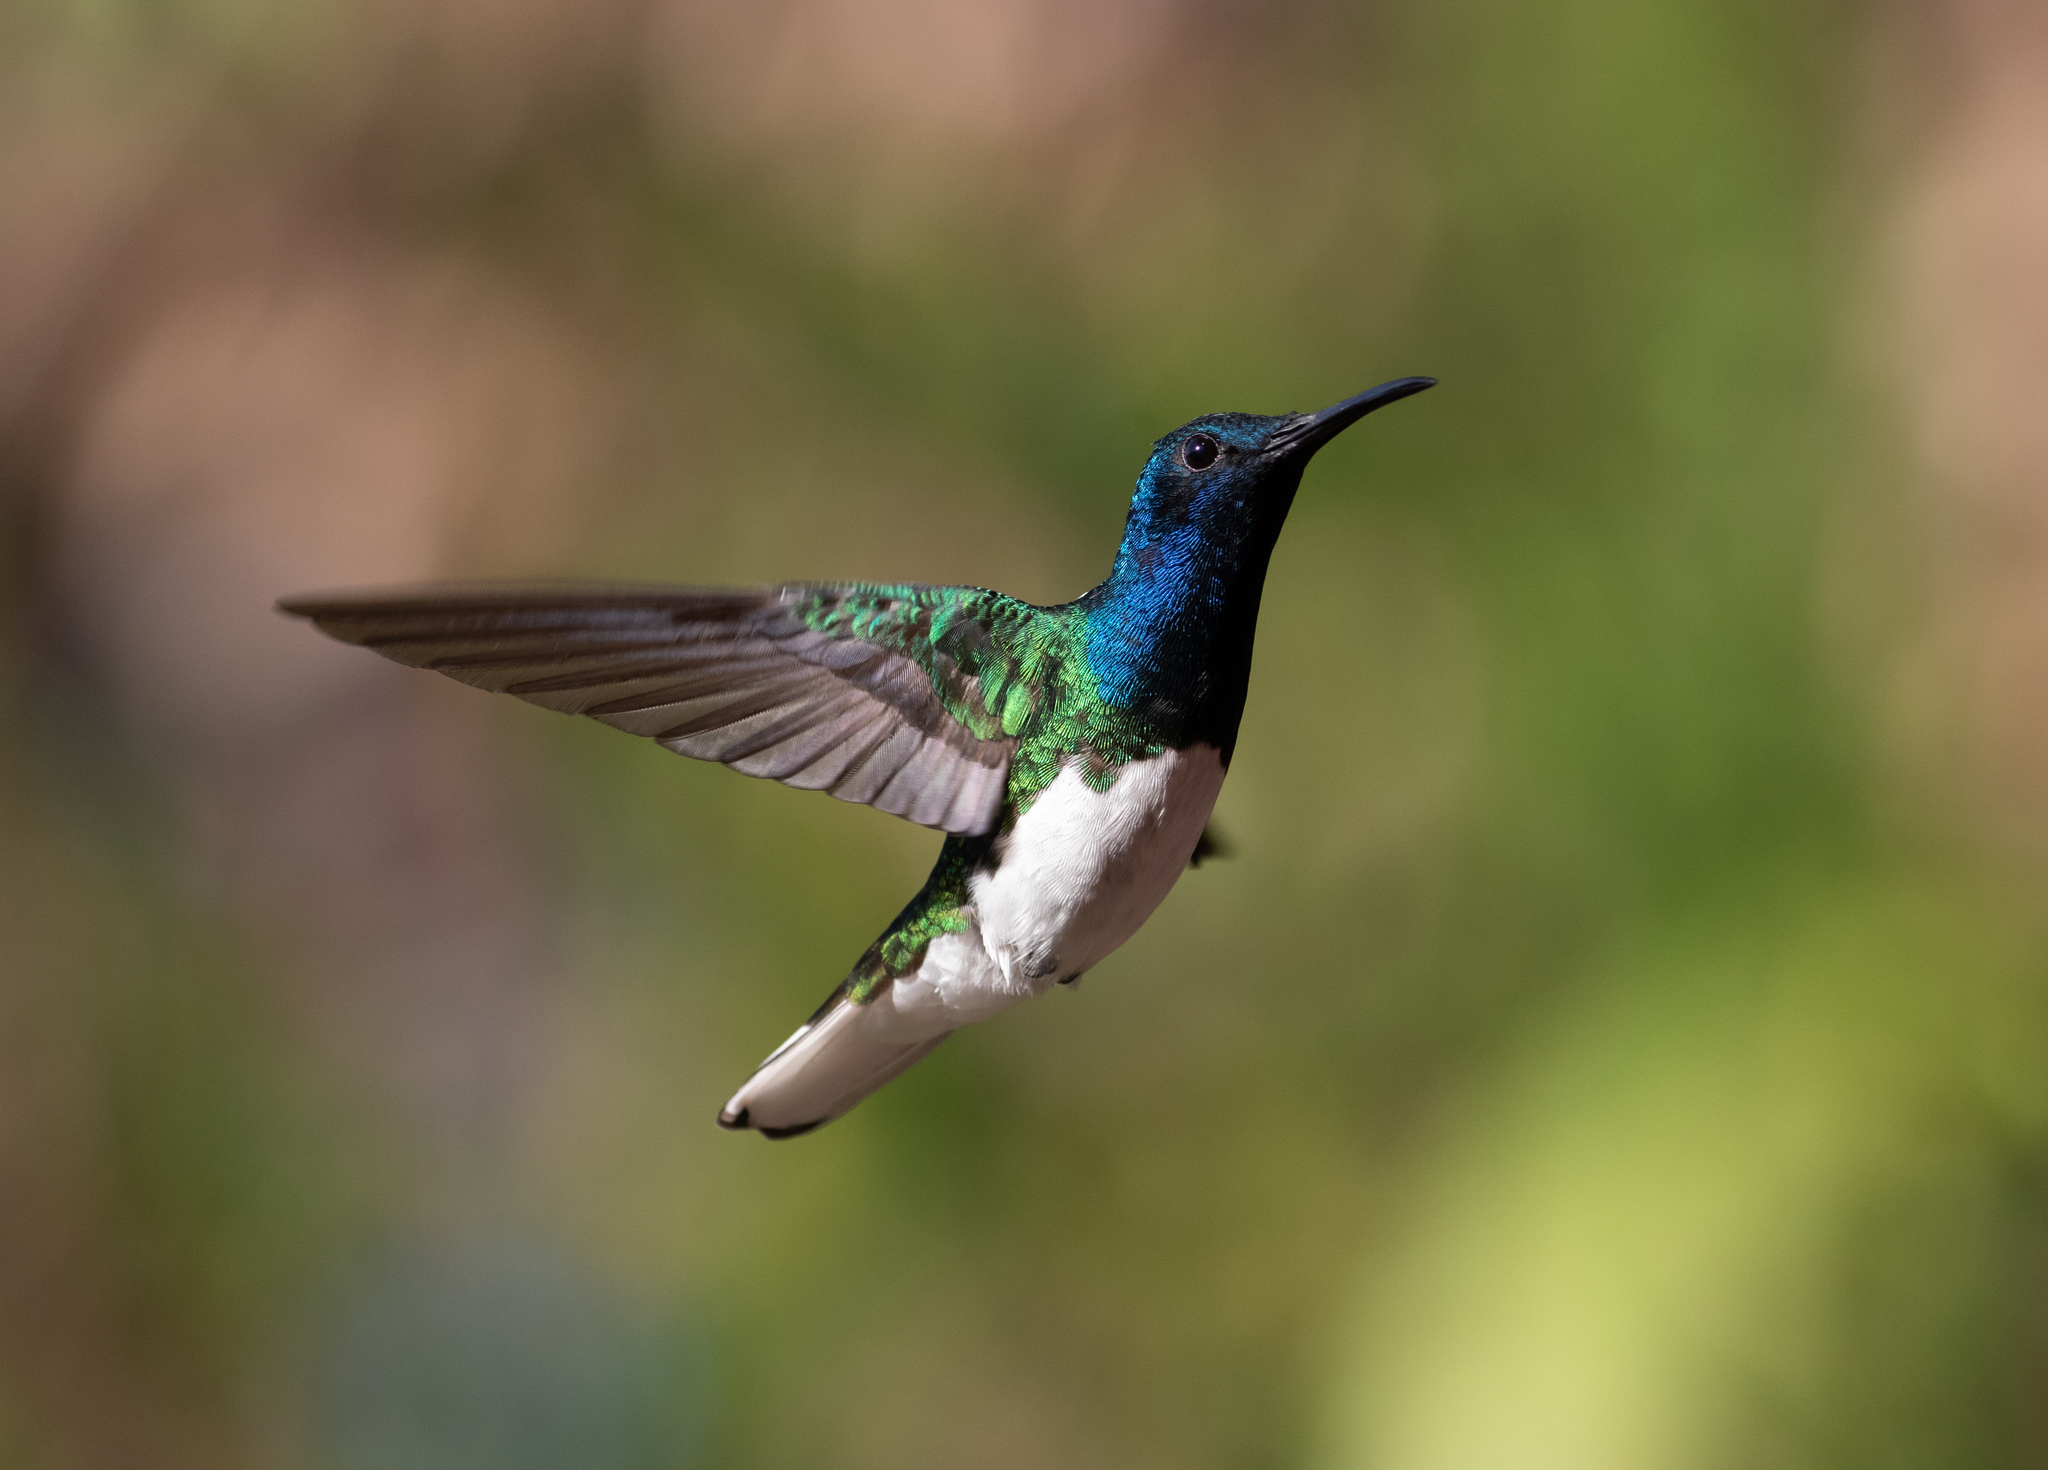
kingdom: Animalia
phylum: Chordata
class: Aves
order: Apodiformes
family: Trochilidae
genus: Florisuga
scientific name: Florisuga mellivora
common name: White-necked jacobin
